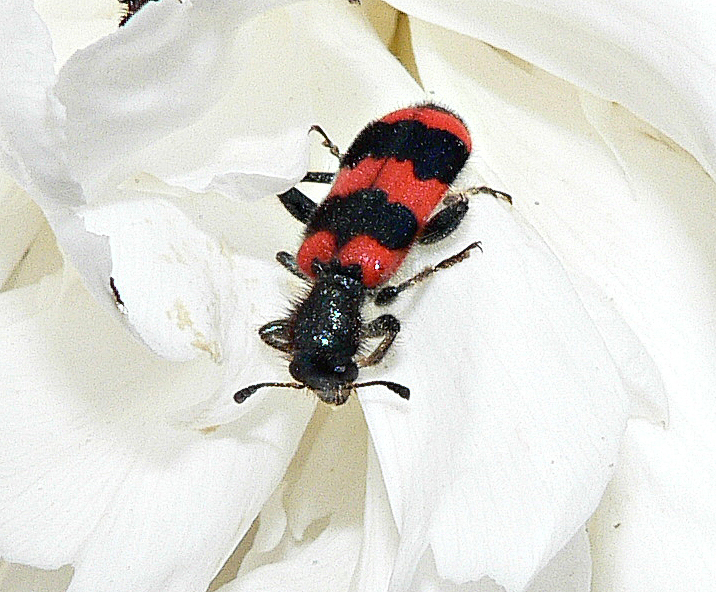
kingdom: Animalia
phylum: Arthropoda
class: Insecta
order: Coleoptera
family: Cleridae
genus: Trichodes
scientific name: Trichodes apiarius
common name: Bee-eating beetle
